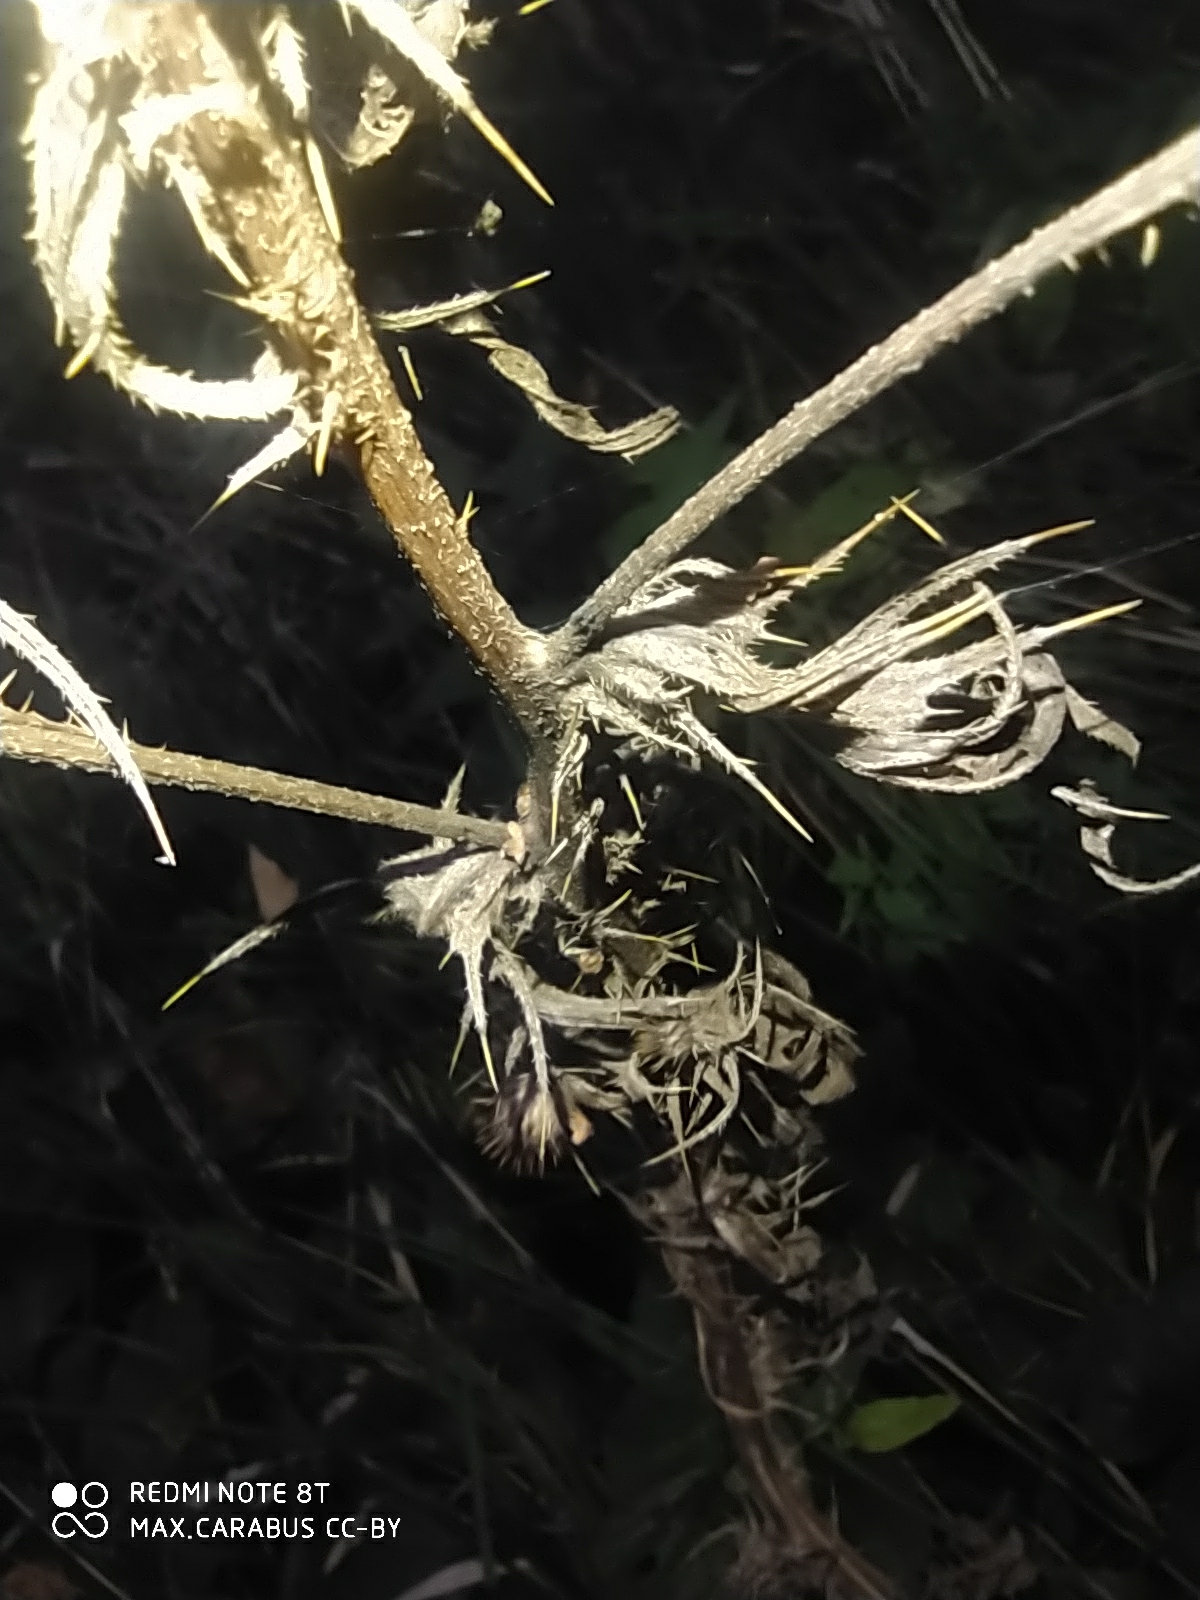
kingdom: Plantae
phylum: Tracheophyta
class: Magnoliopsida
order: Asterales
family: Asteraceae
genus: Cirsium
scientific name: Cirsium vulgare
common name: Bull thistle
